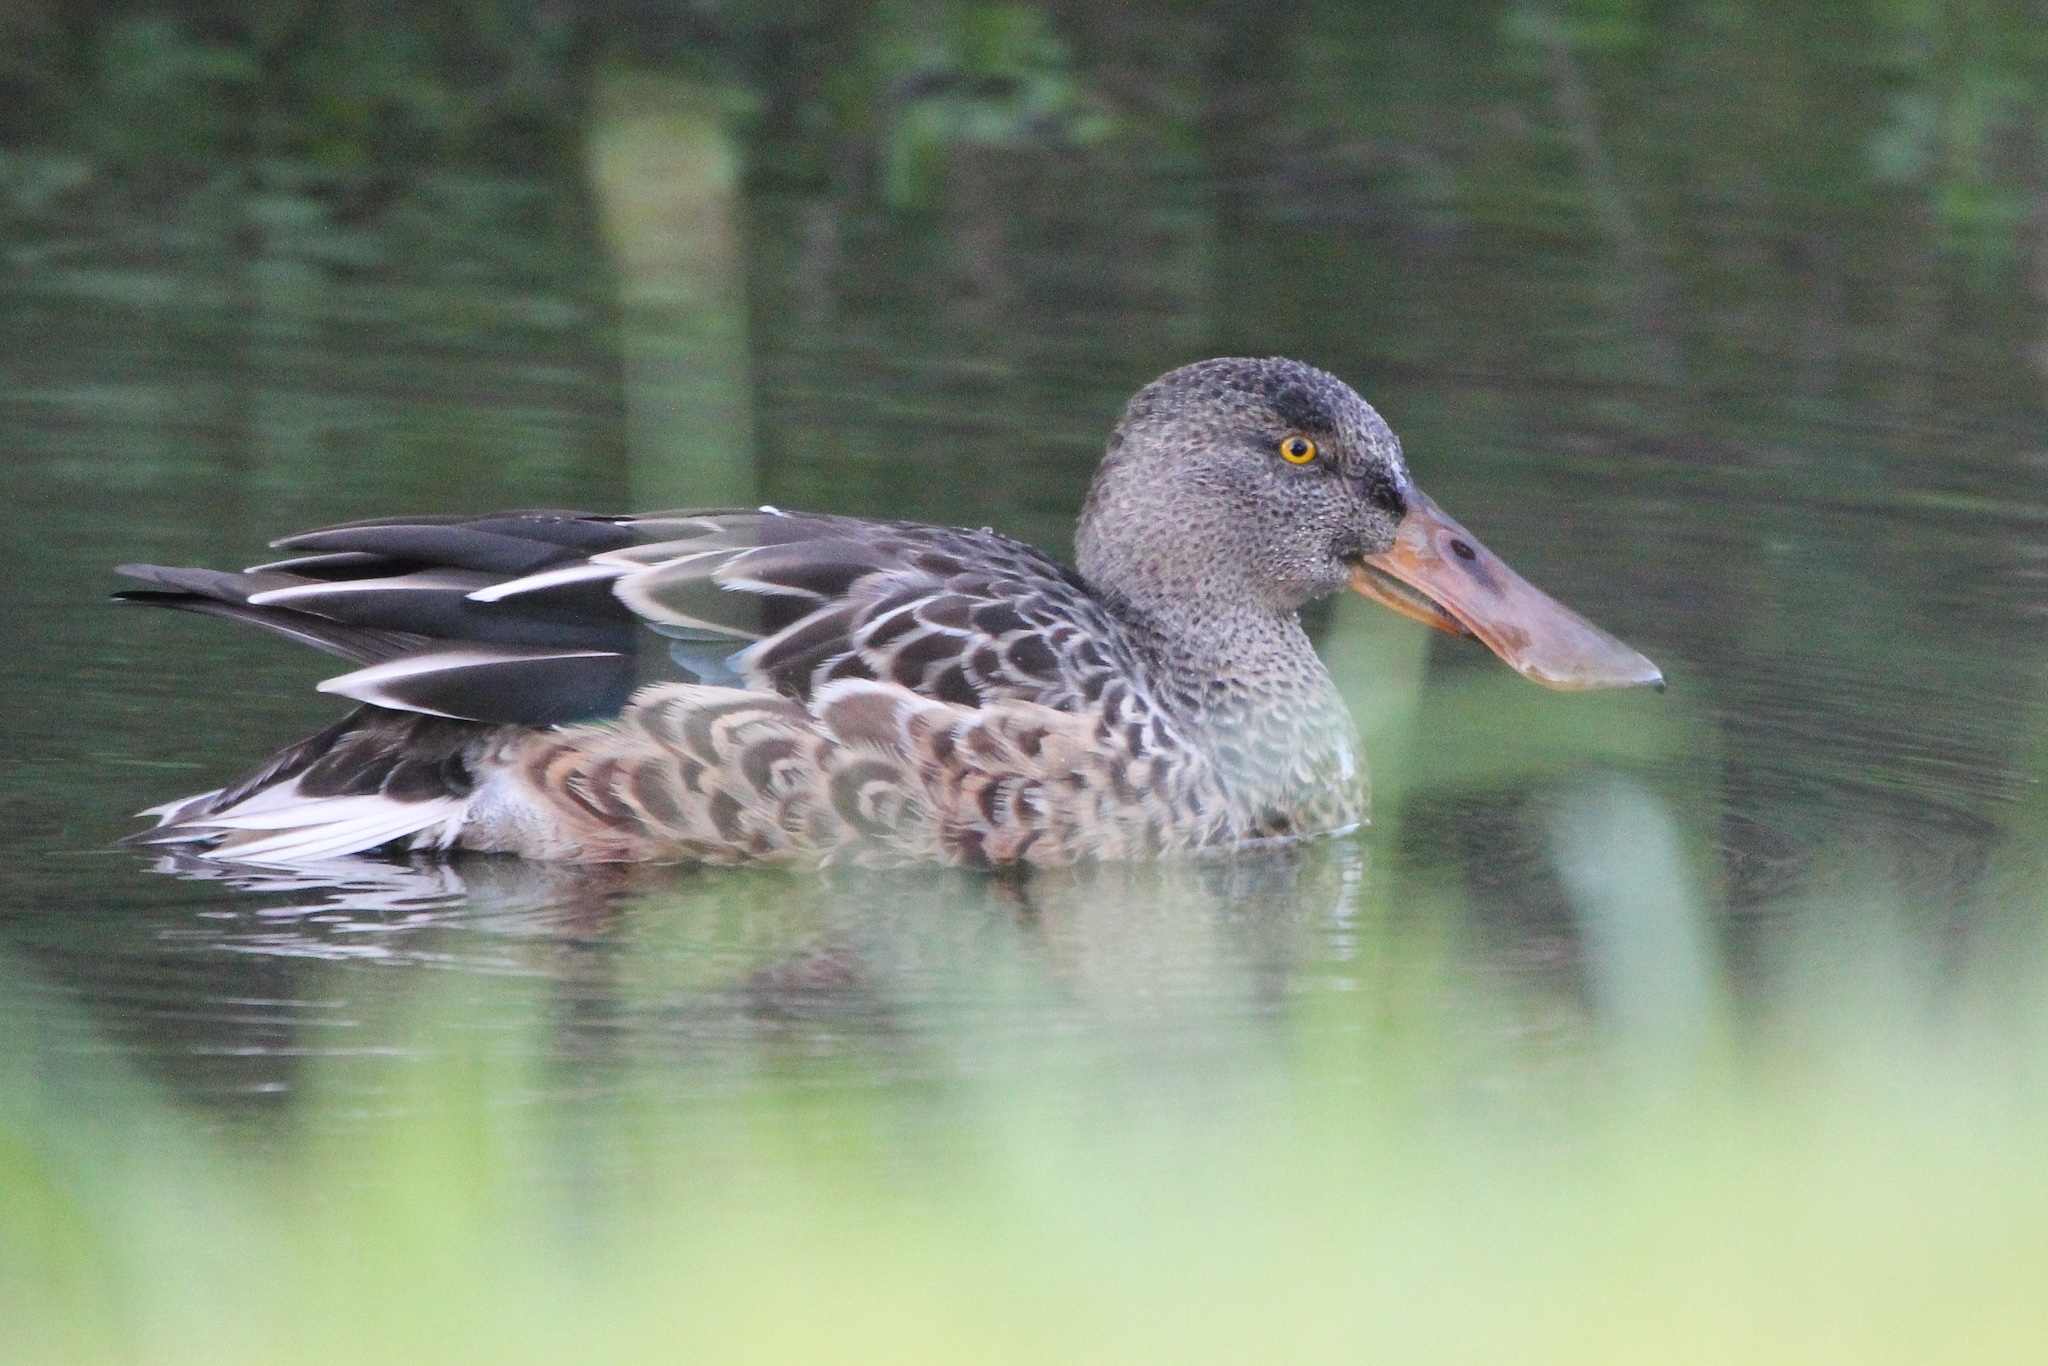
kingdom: Animalia
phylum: Chordata
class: Aves
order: Anseriformes
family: Anatidae
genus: Spatula
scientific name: Spatula clypeata
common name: Northern shoveler
